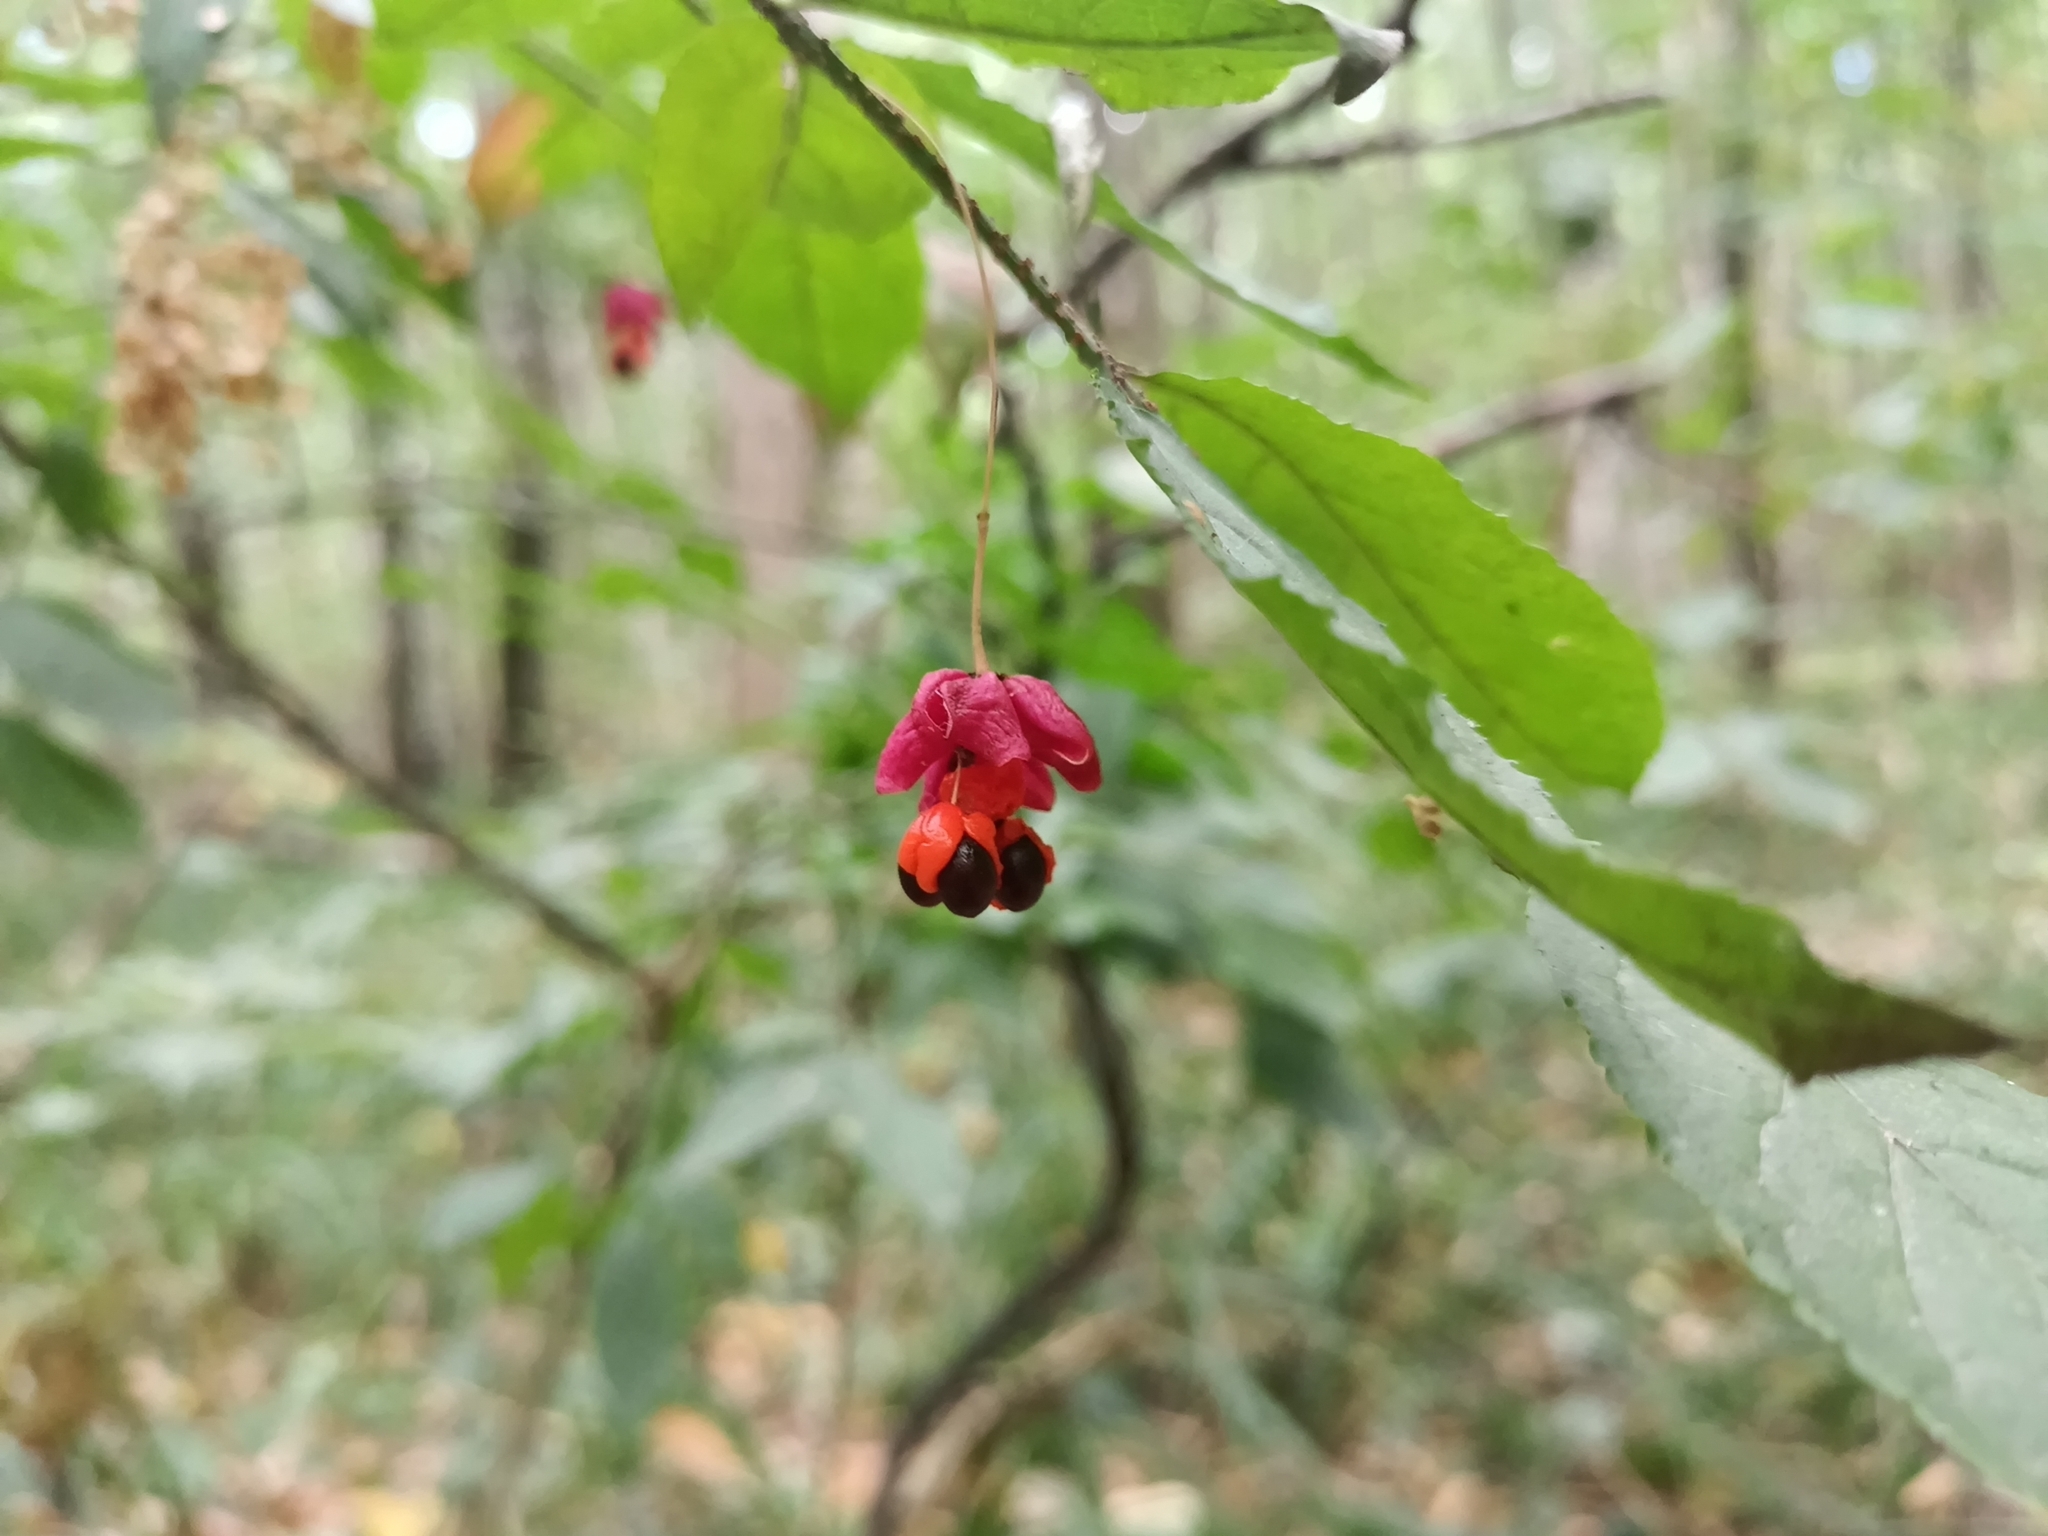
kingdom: Plantae
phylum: Tracheophyta
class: Magnoliopsida
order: Celastrales
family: Celastraceae
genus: Euonymus
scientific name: Euonymus verrucosus
